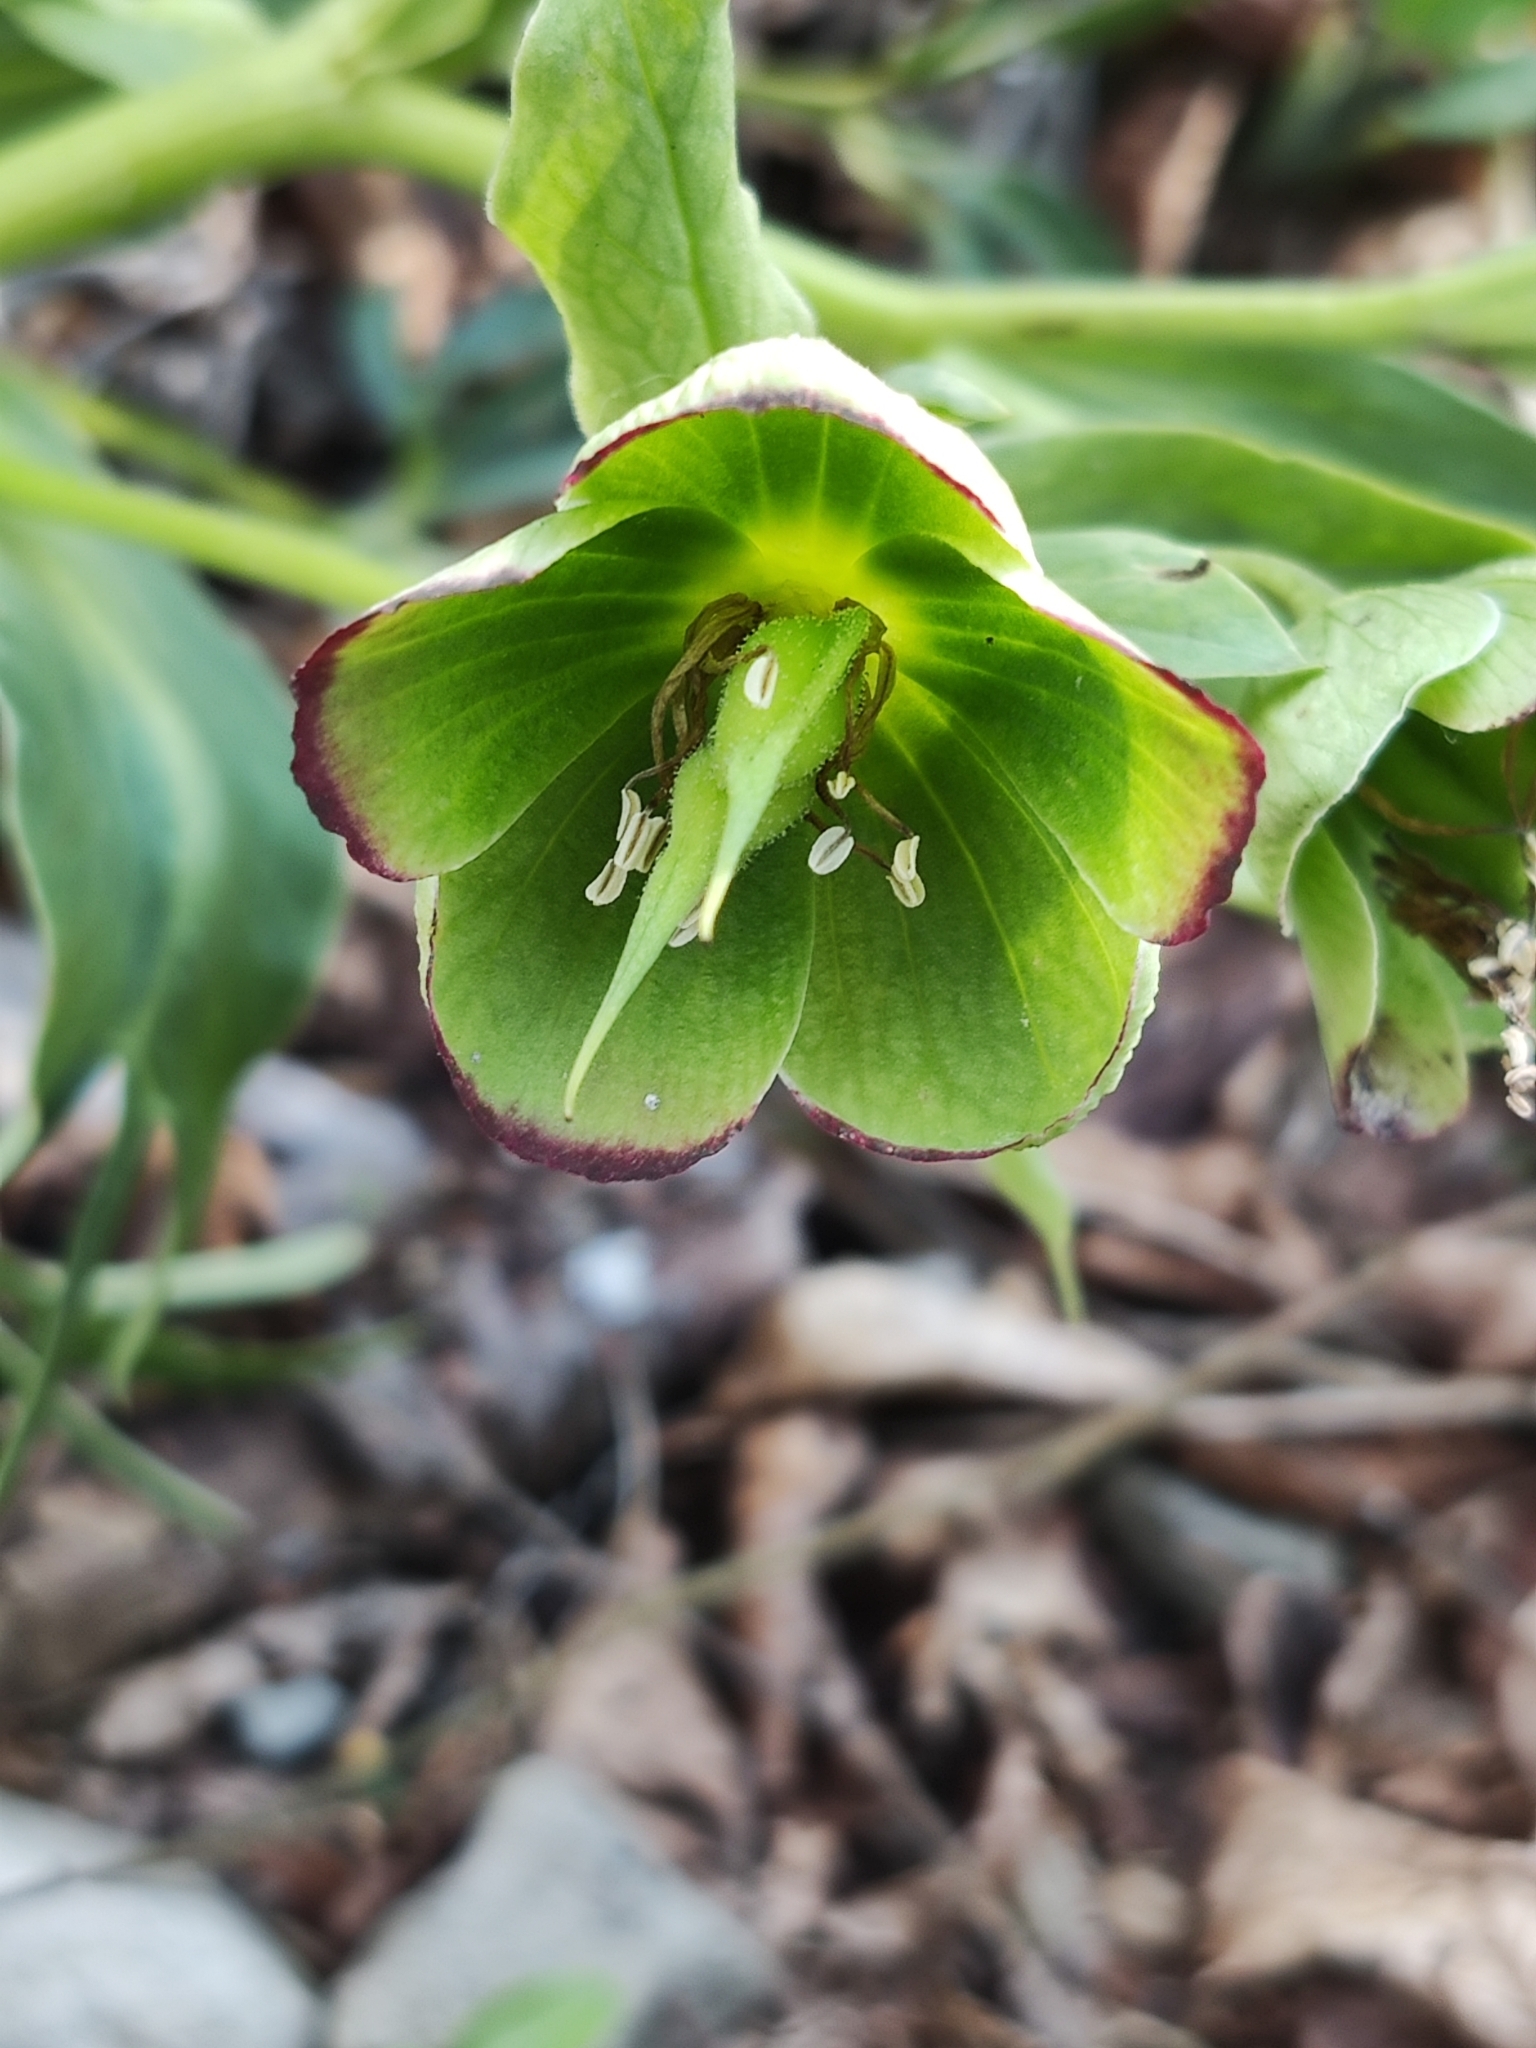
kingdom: Plantae
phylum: Tracheophyta
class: Magnoliopsida
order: Ranunculales
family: Ranunculaceae
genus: Helleborus
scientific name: Helleborus foetidus
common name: Stinking hellebore
